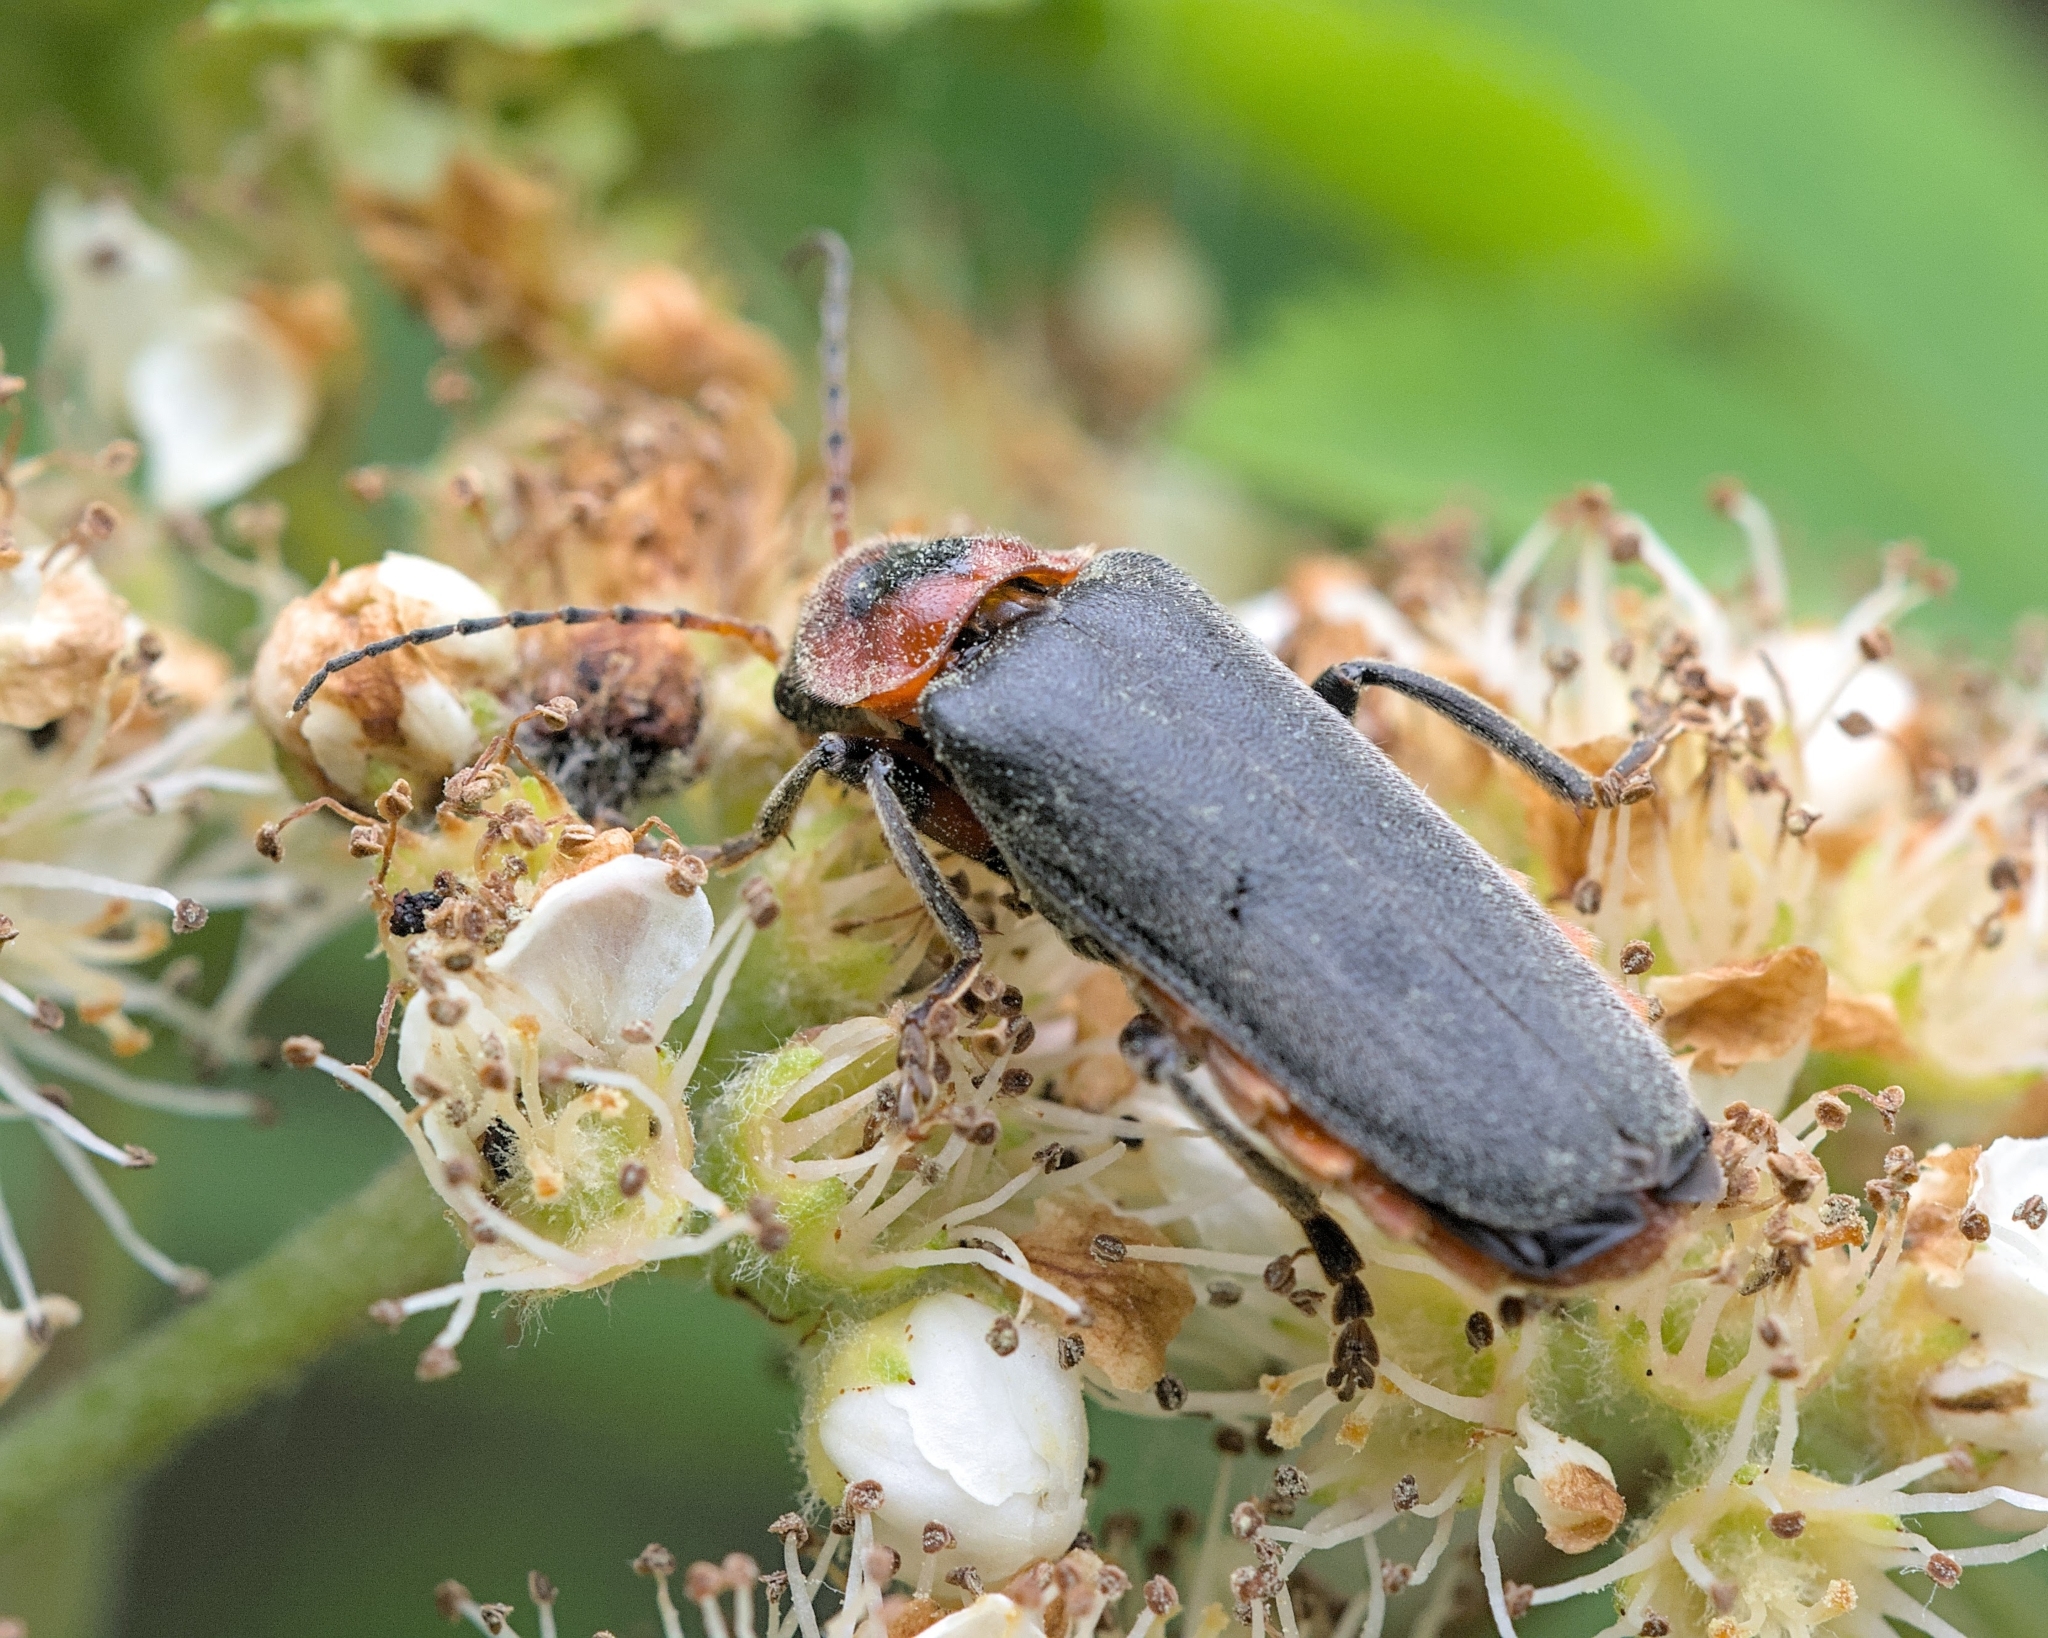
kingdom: Animalia
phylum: Arthropoda
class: Insecta
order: Coleoptera
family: Cantharidae
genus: Cantharis
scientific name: Cantharis rustica
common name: Soldier beetle
